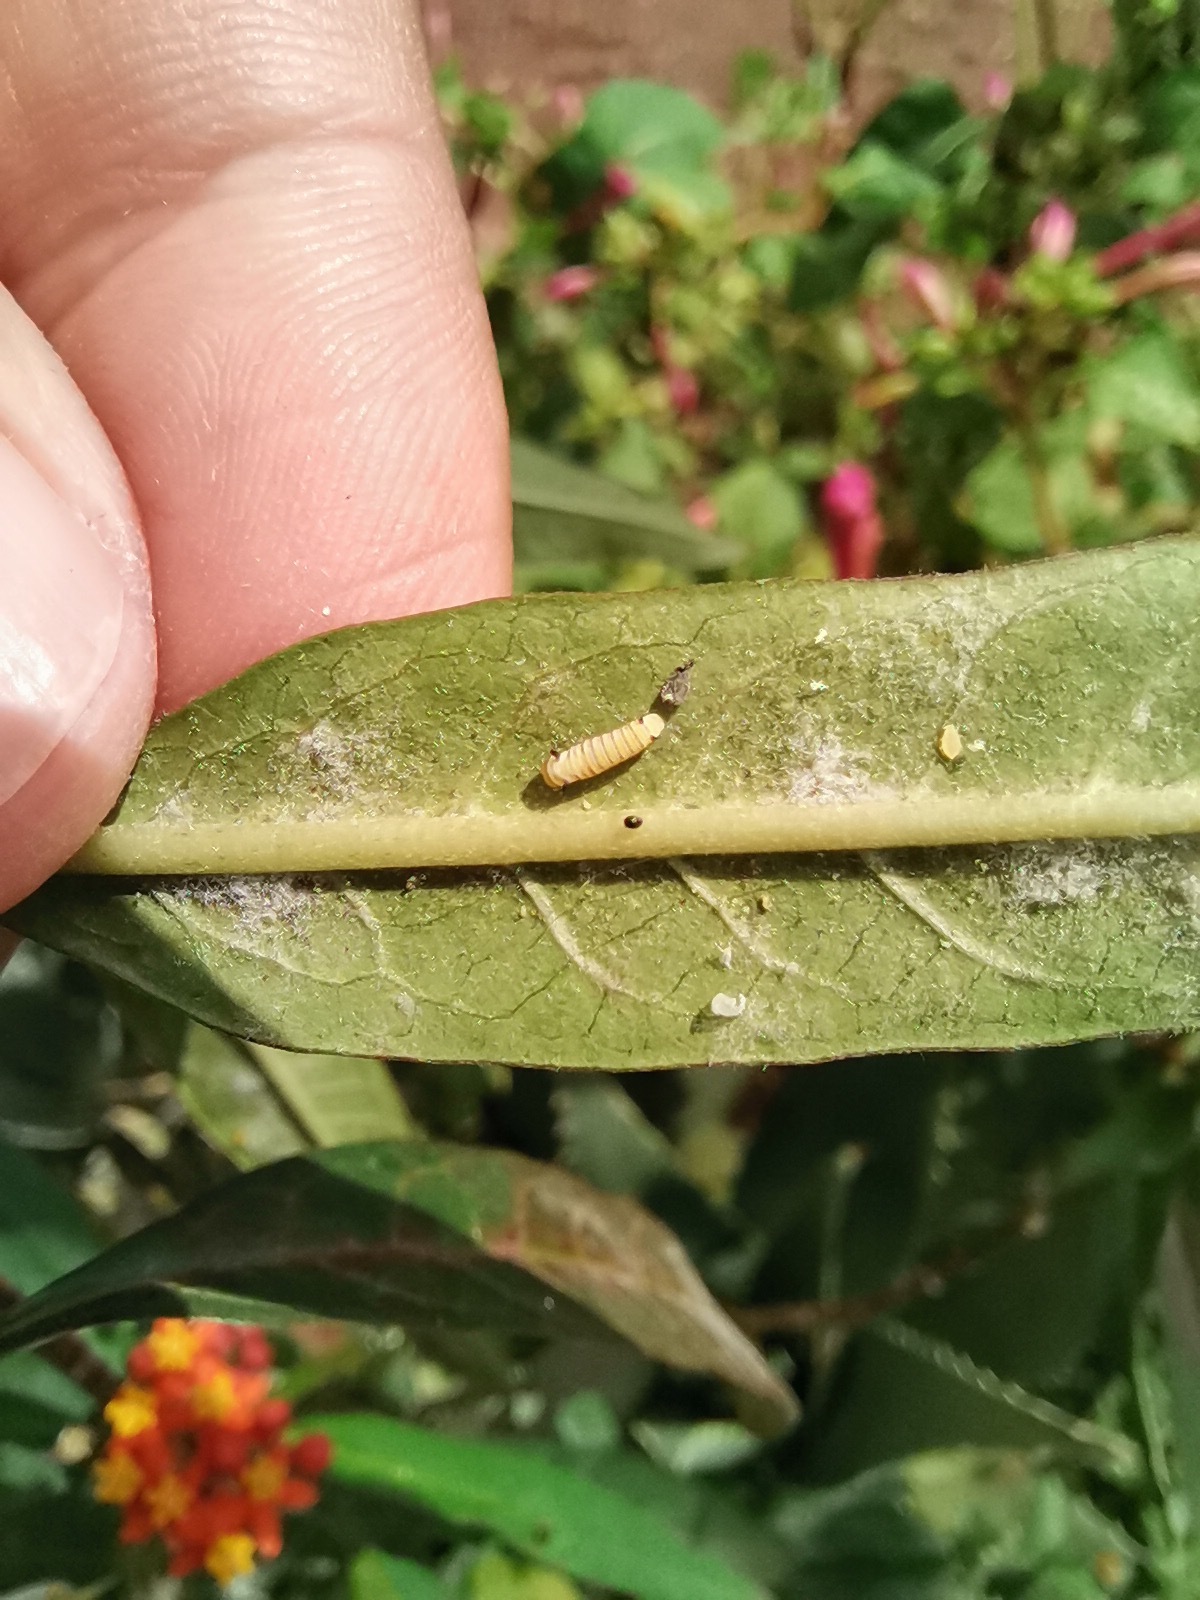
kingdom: Animalia
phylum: Arthropoda
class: Insecta
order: Lepidoptera
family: Nymphalidae
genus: Danaus
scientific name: Danaus plexippus
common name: Monarch
